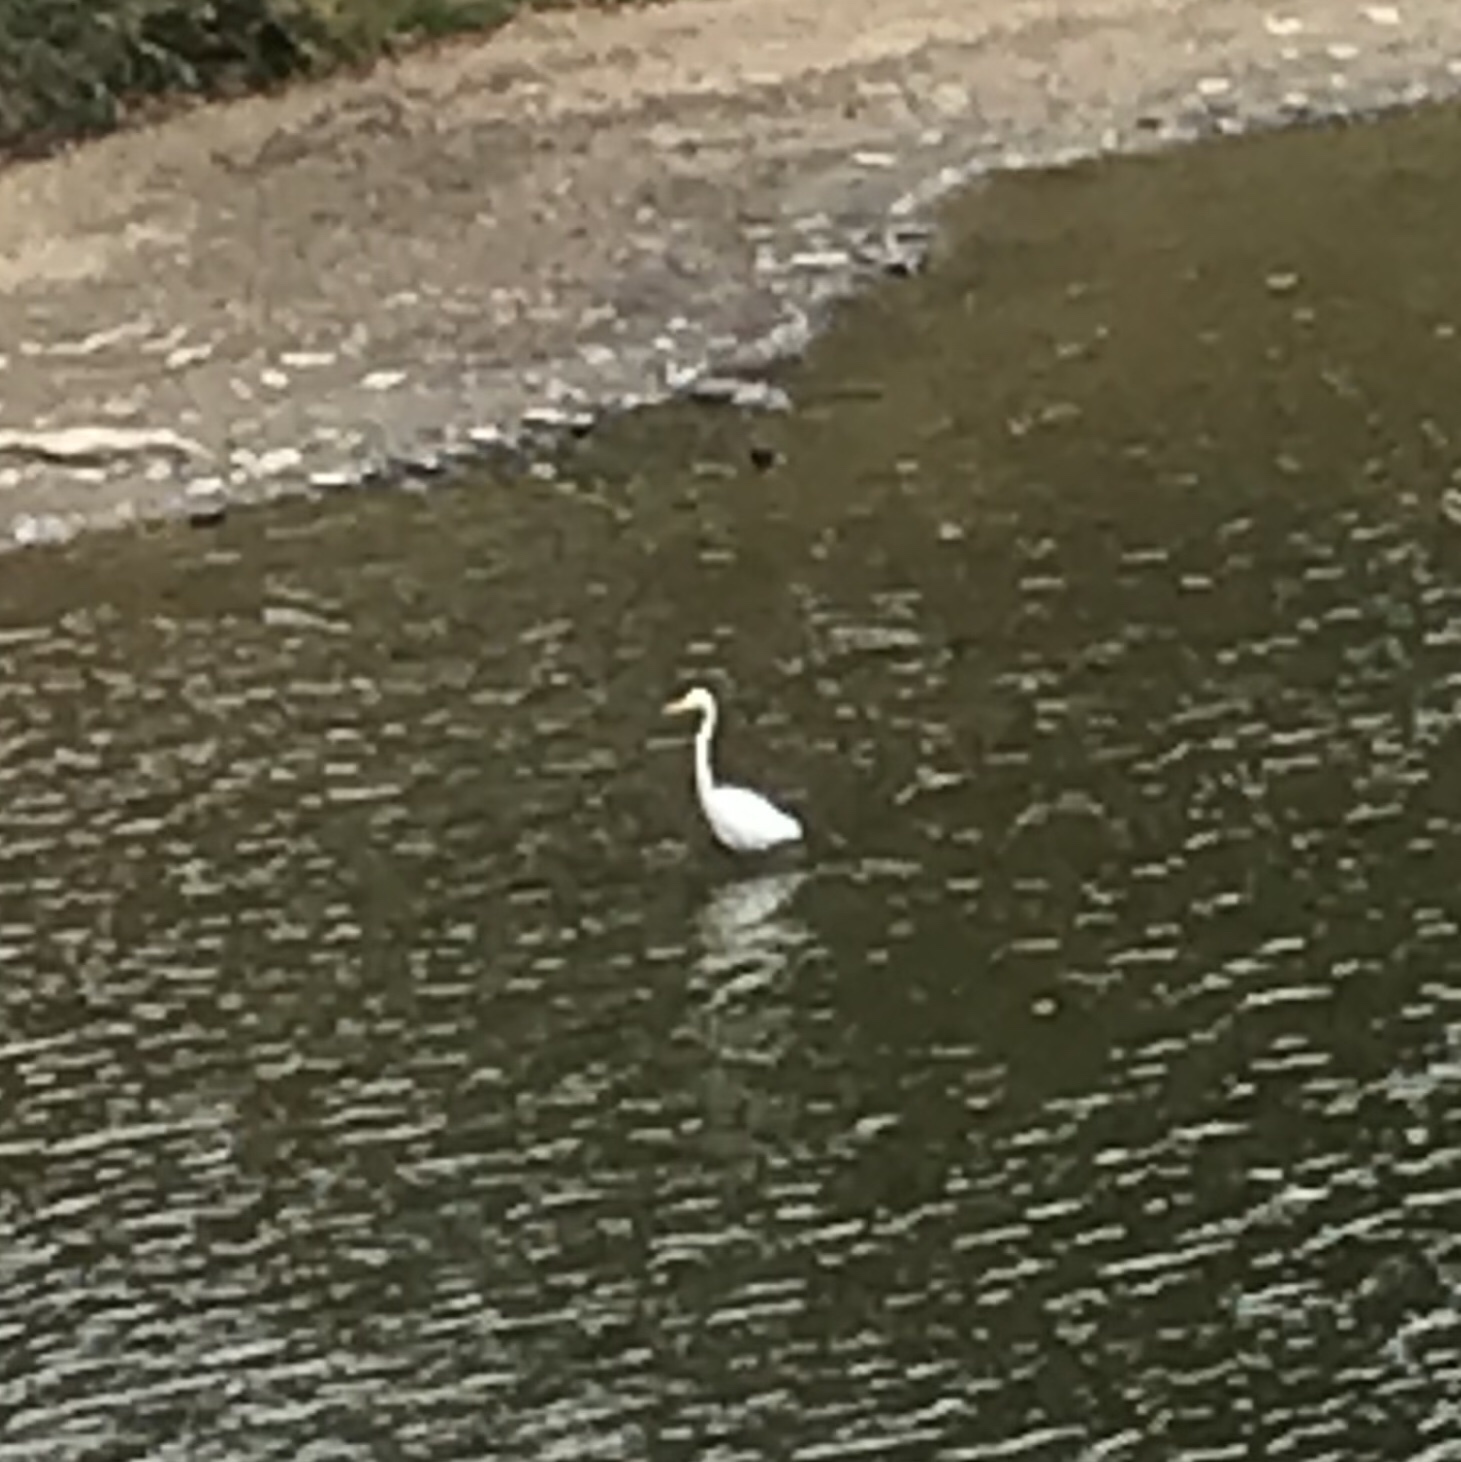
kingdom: Animalia
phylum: Chordata
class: Aves
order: Pelecaniformes
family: Ardeidae
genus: Ardea
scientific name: Ardea alba
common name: Great egret
